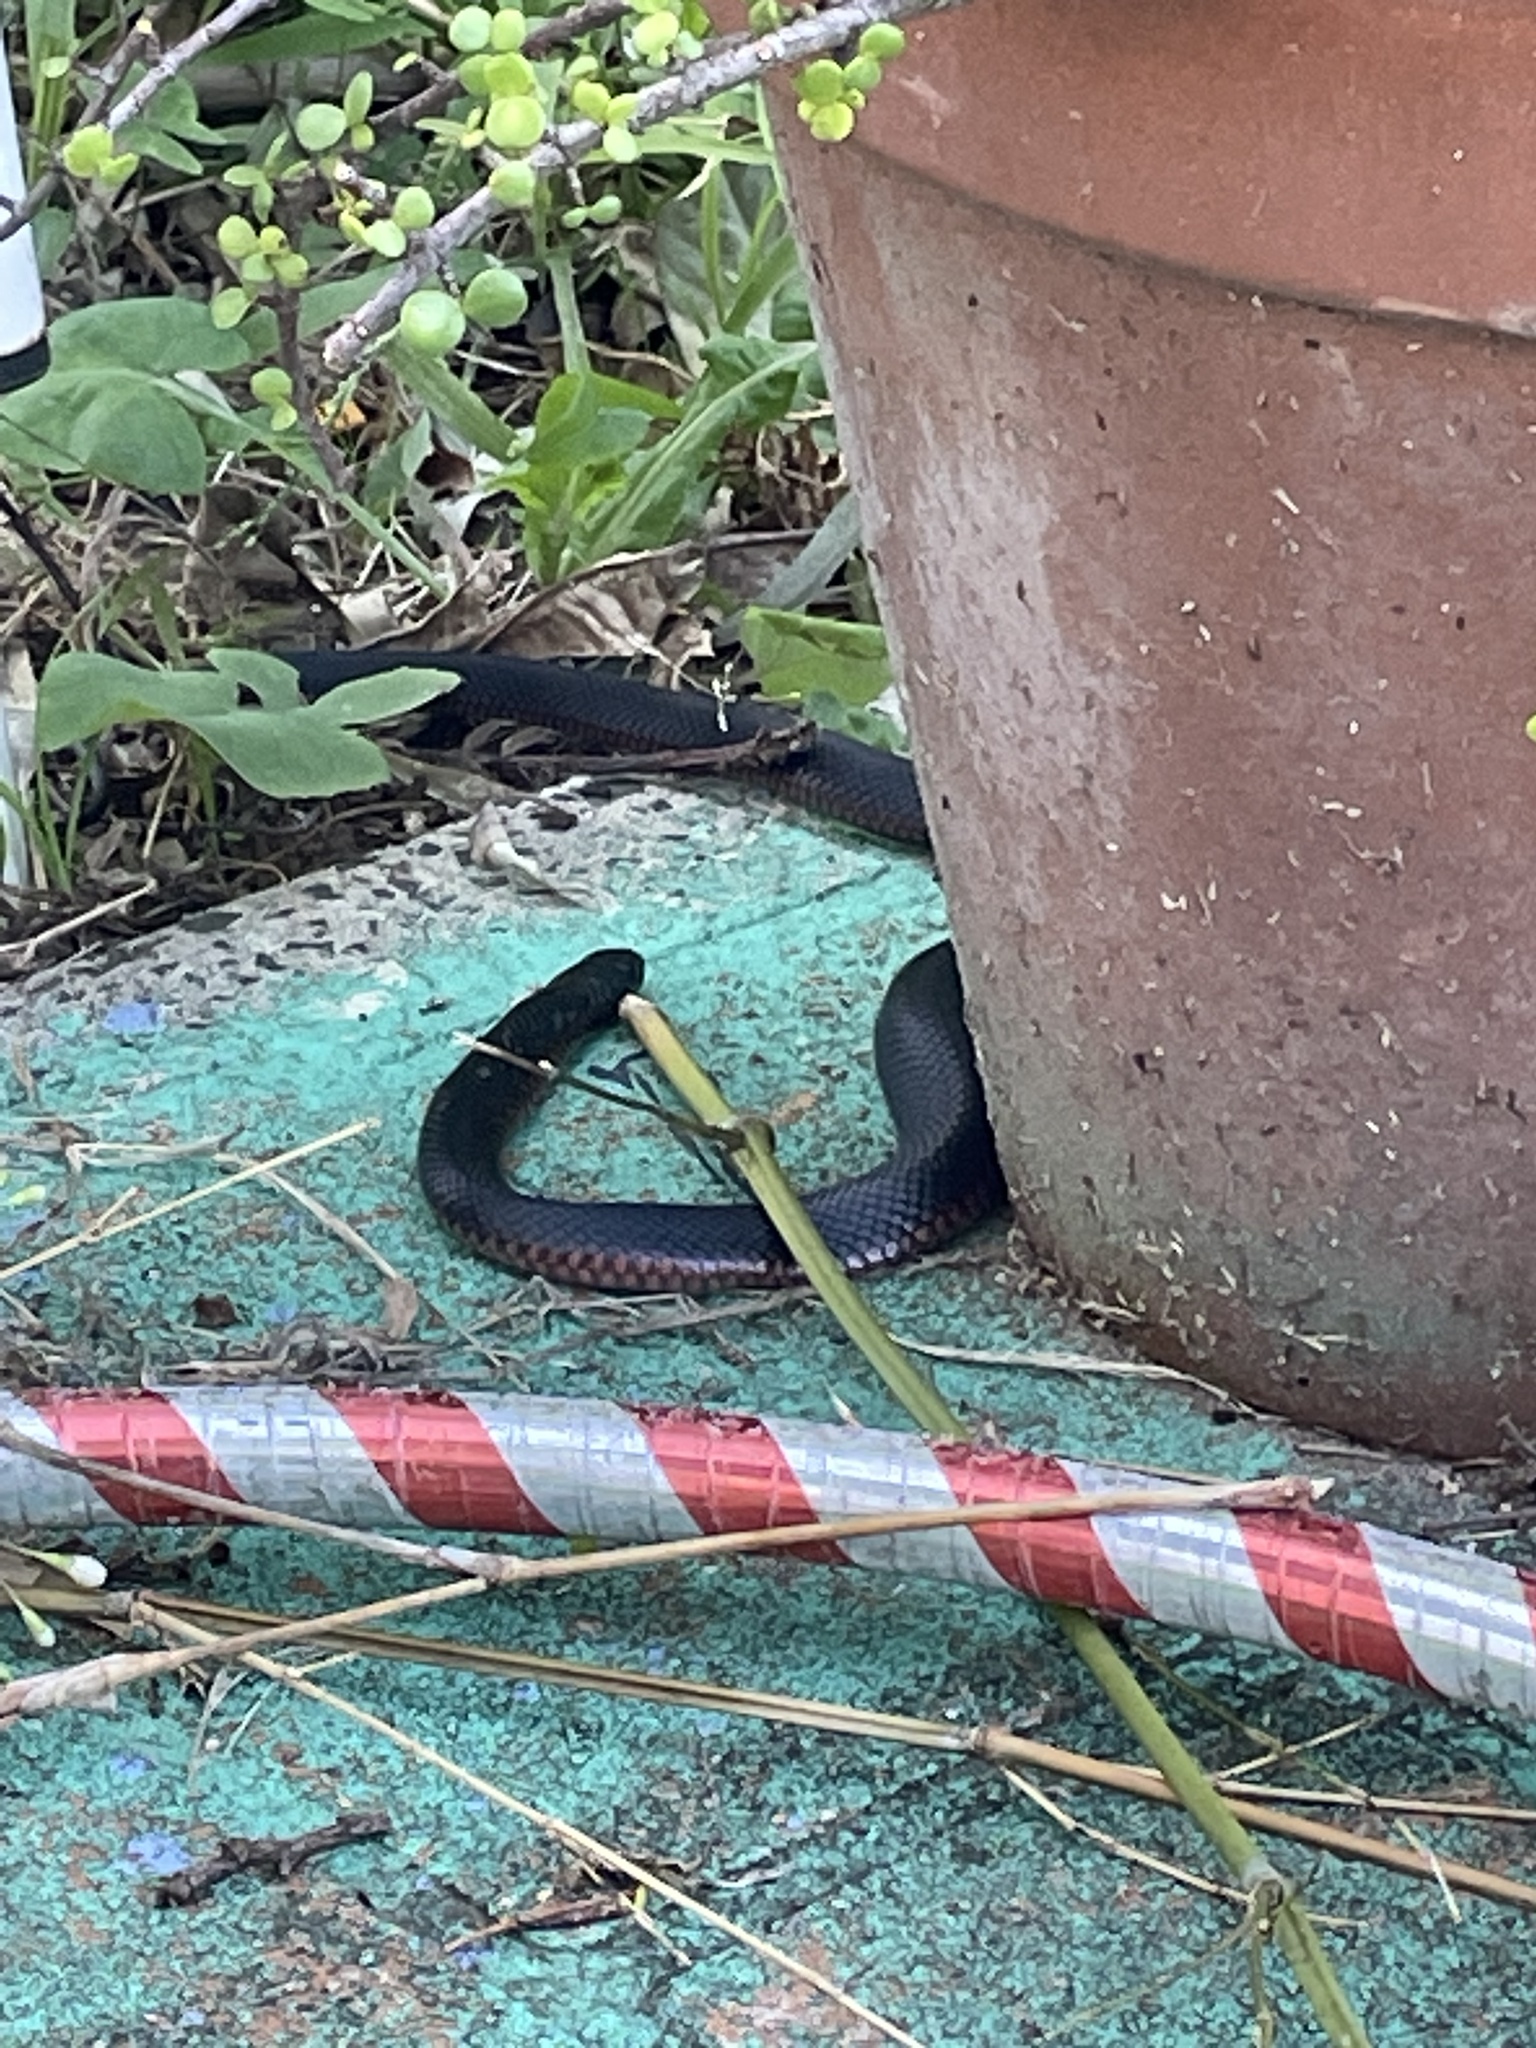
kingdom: Animalia
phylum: Chordata
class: Squamata
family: Elapidae
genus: Pseudechis
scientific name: Pseudechis porphyriacus
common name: Australian black snake
